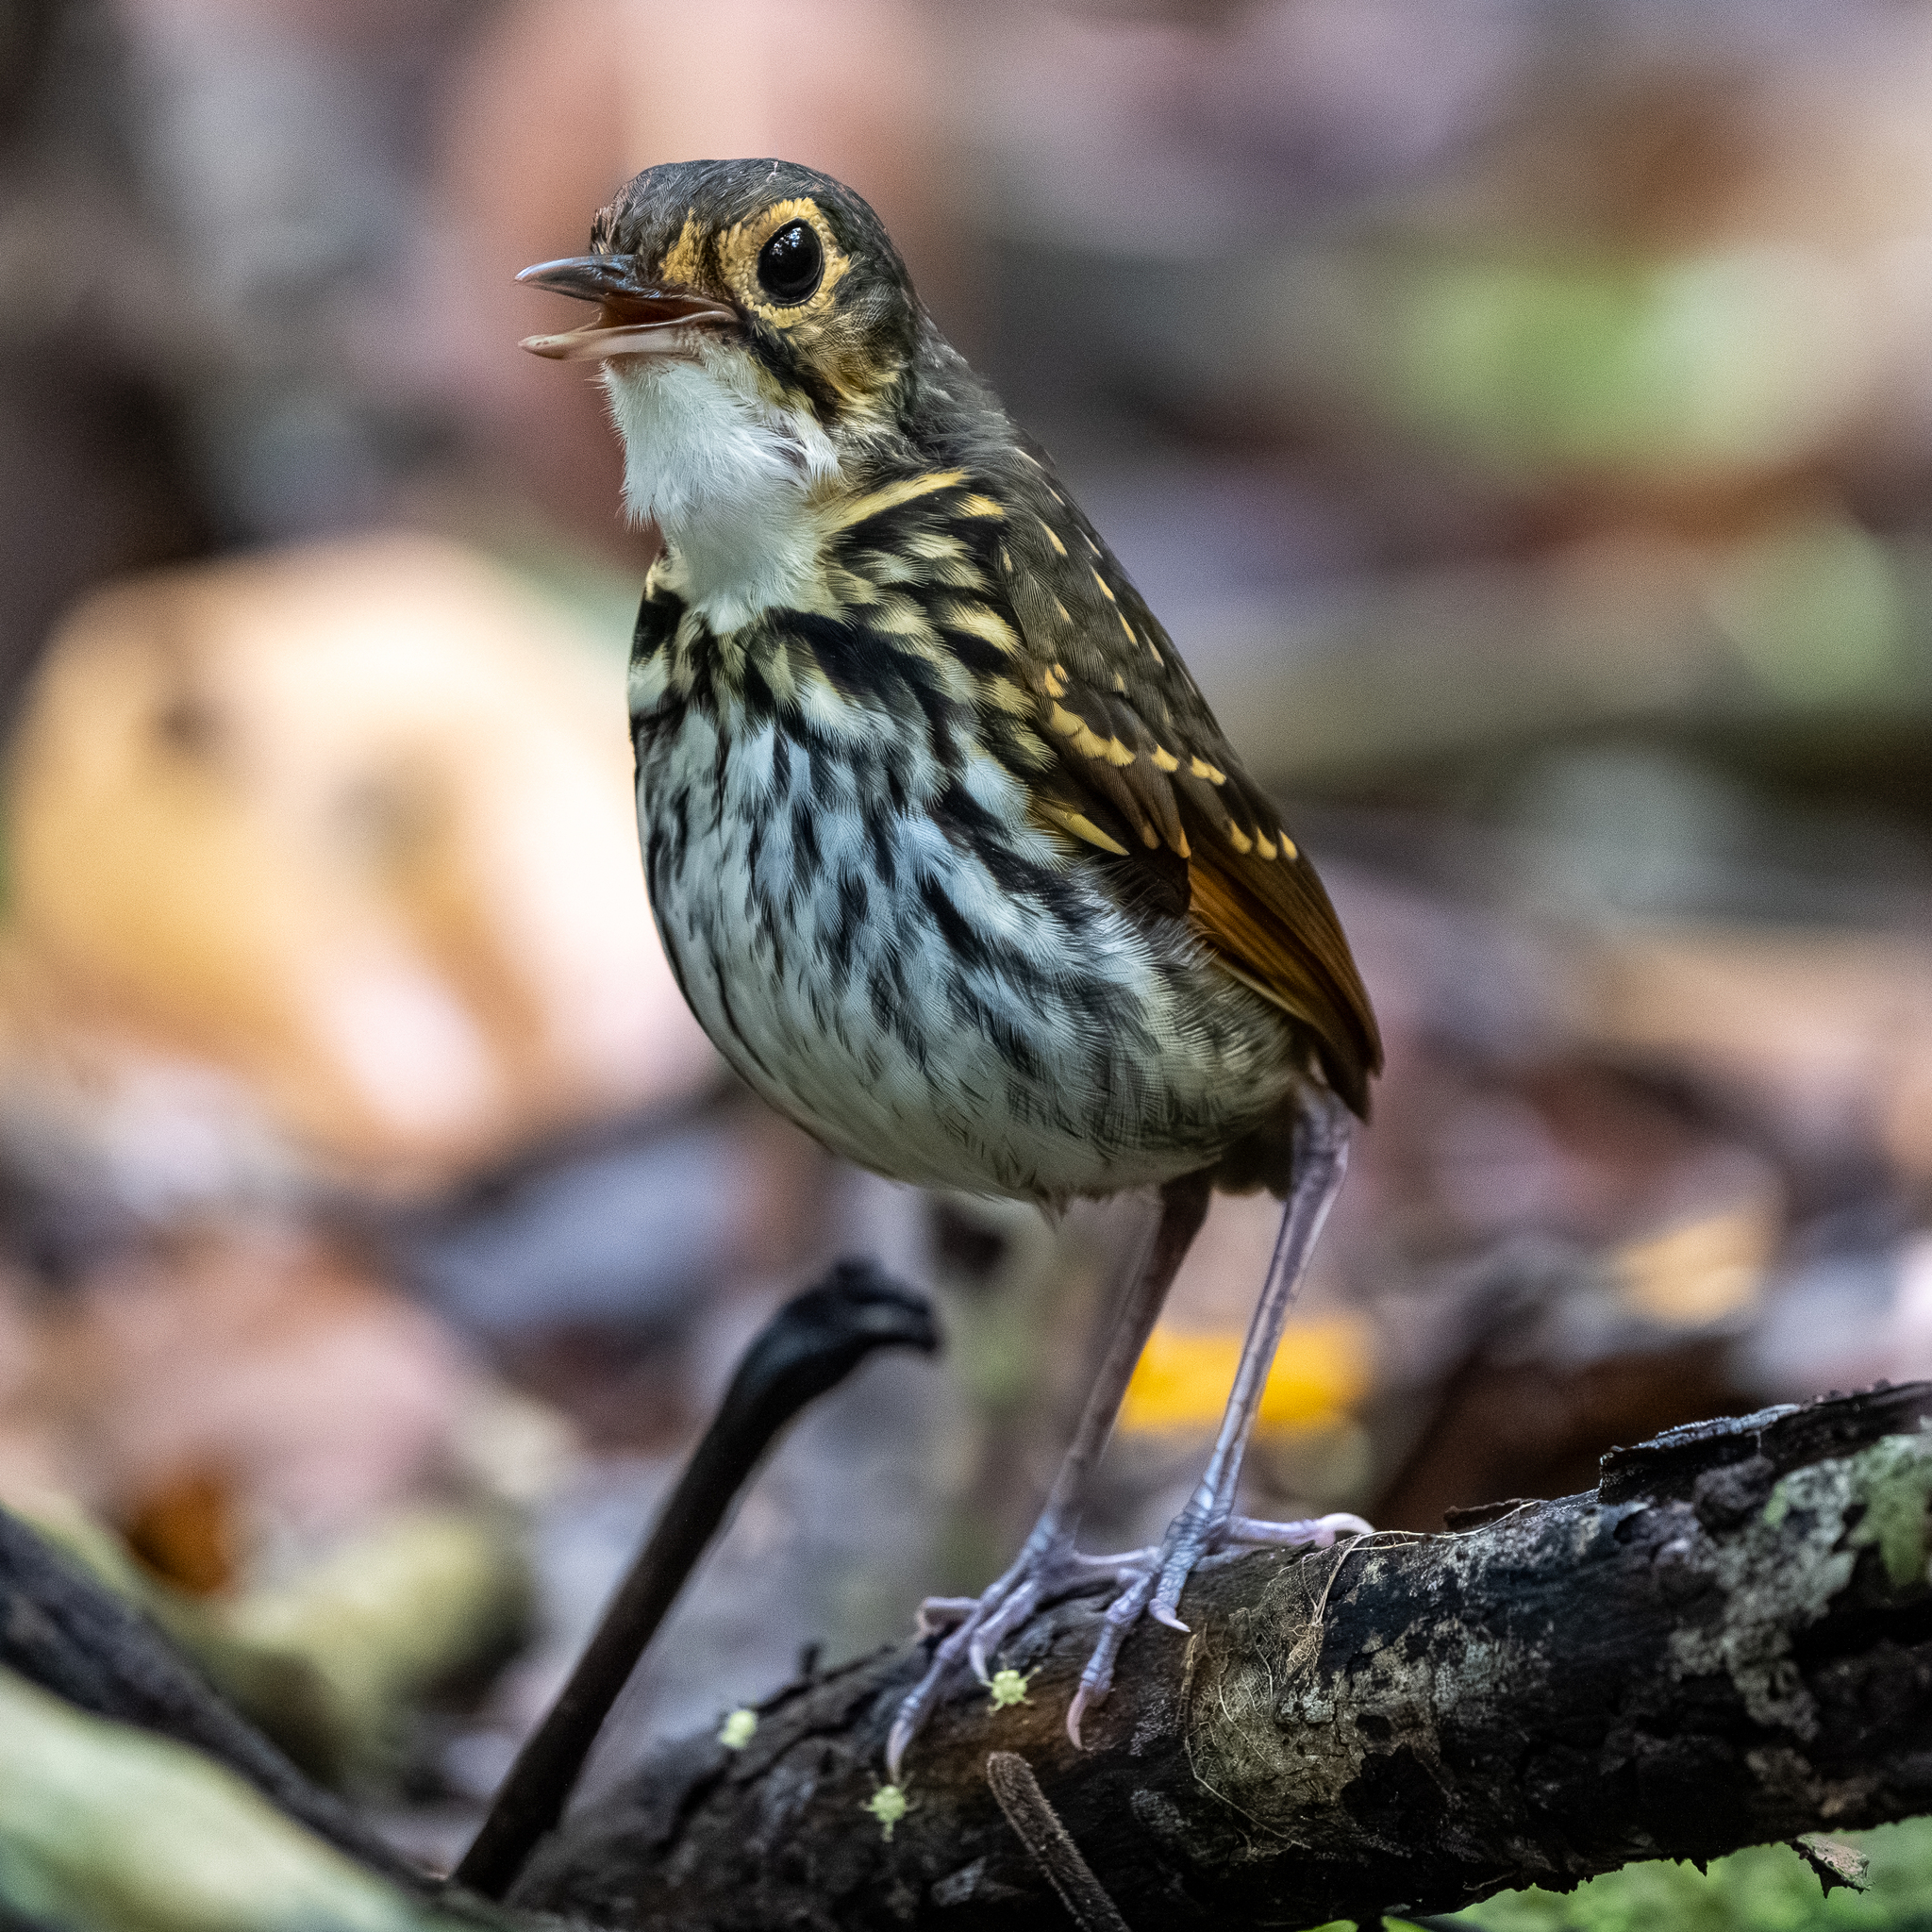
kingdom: Animalia
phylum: Chordata
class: Aves
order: Passeriformes
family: Grallariidae
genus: Hylopezus
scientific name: Hylopezus perspicillatus
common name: Streak-chested antpitta
